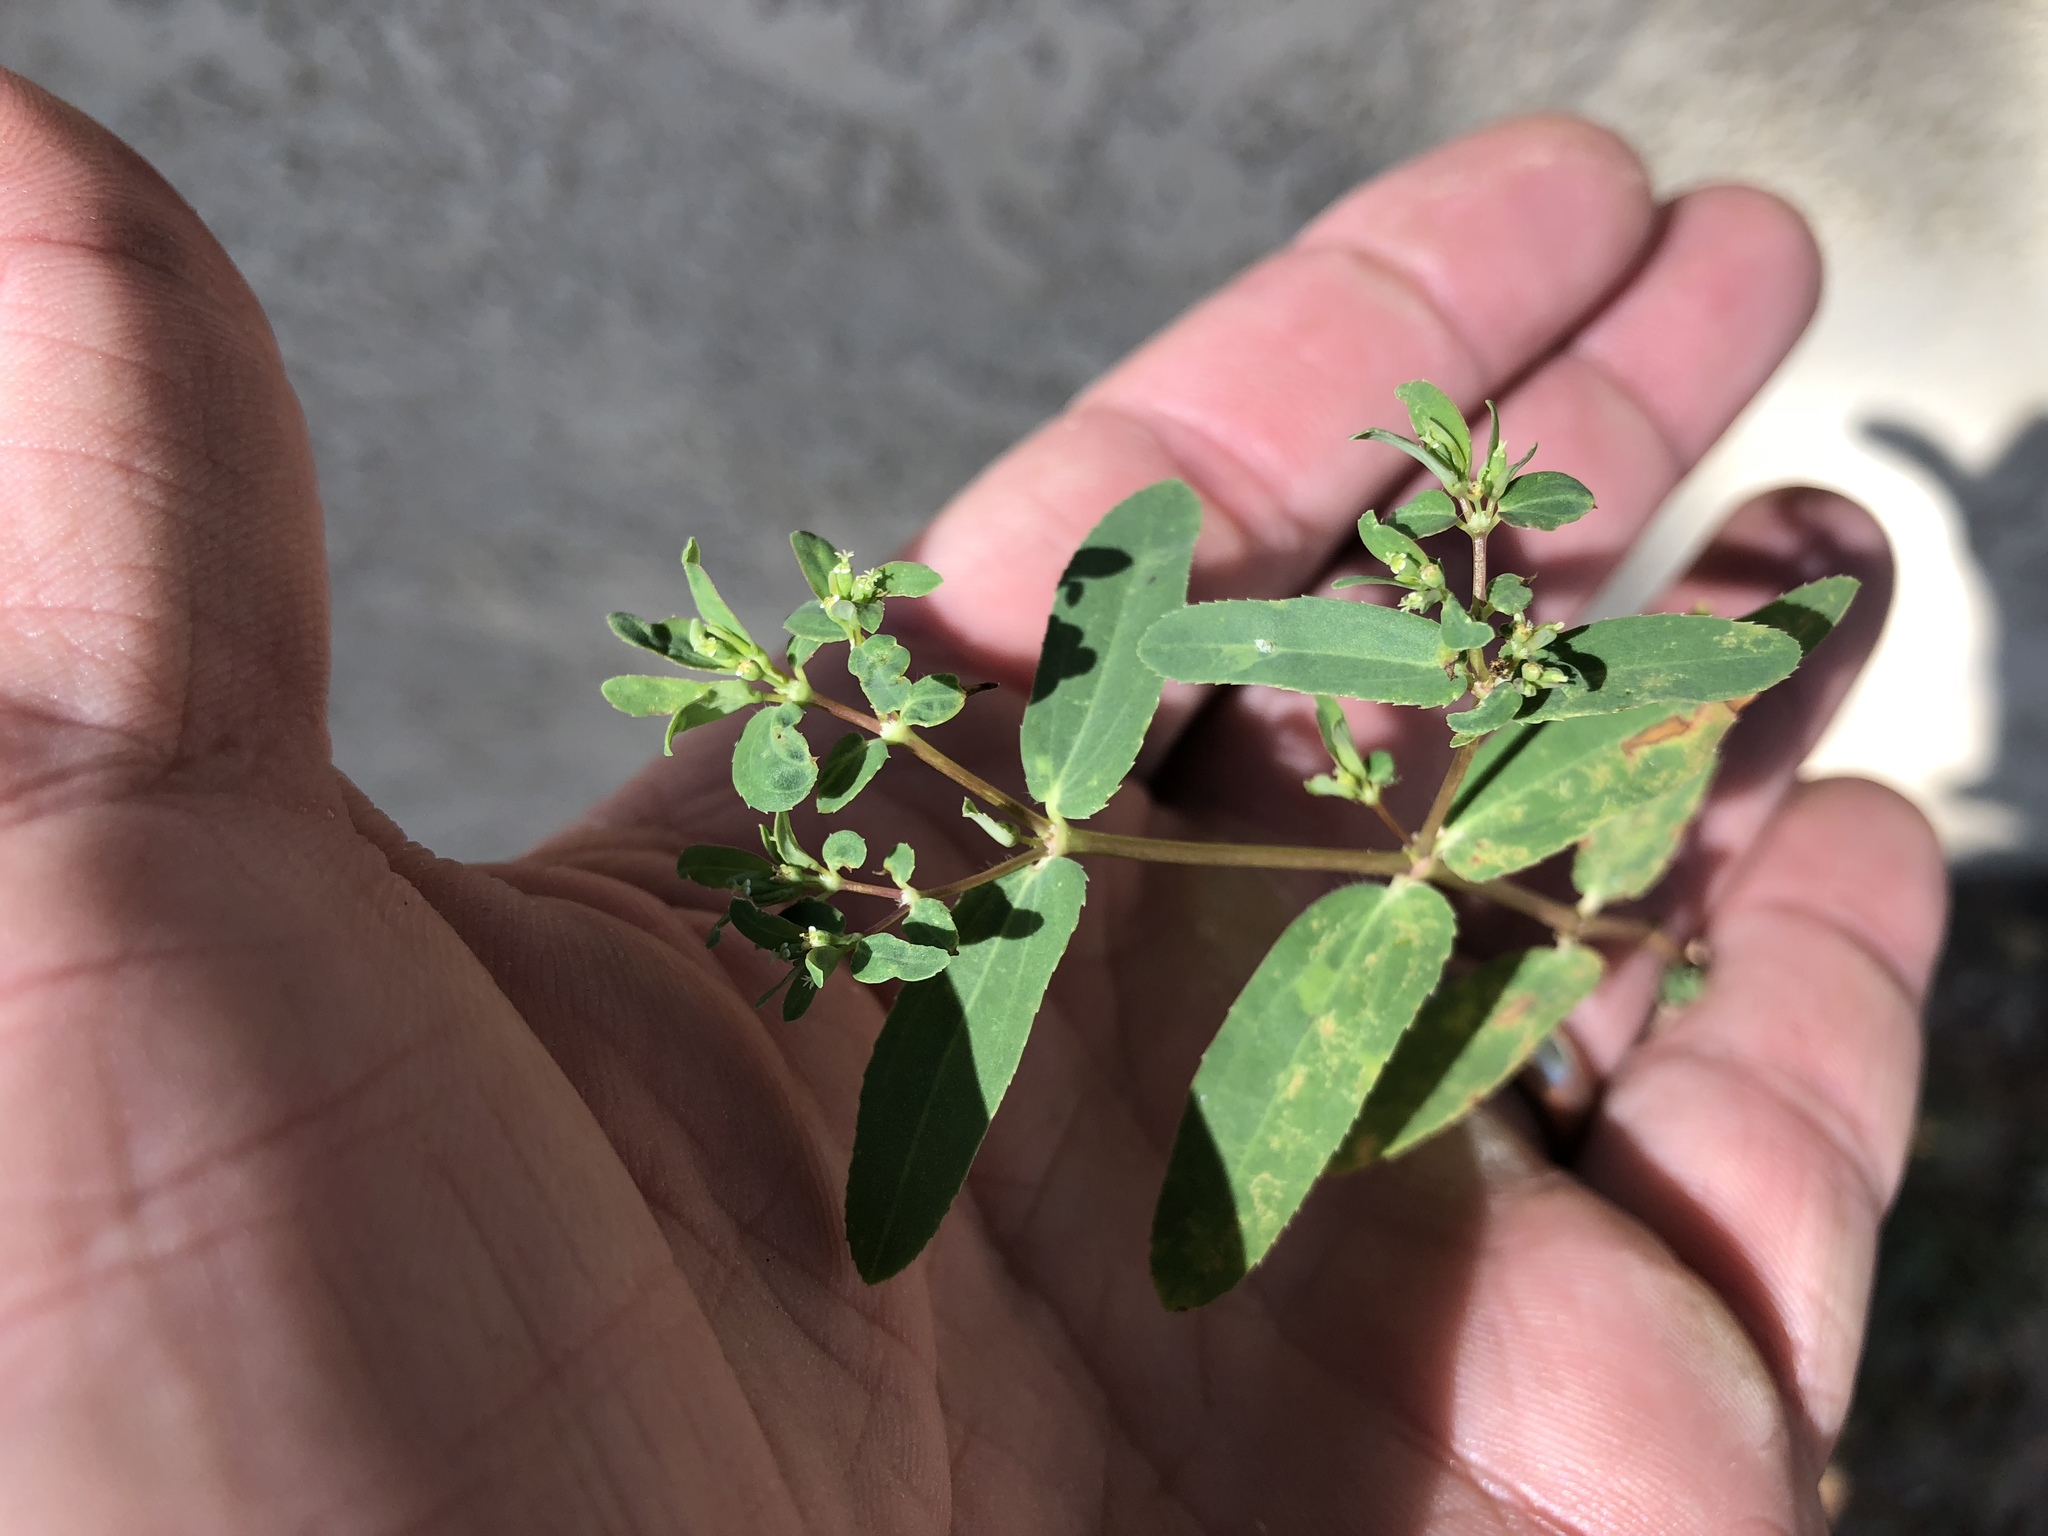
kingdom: Plantae
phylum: Tracheophyta
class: Magnoliopsida
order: Malpighiales
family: Euphorbiaceae
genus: Euphorbia
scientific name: Euphorbia hyssopifolia
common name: Hyssopleaf sandmat
